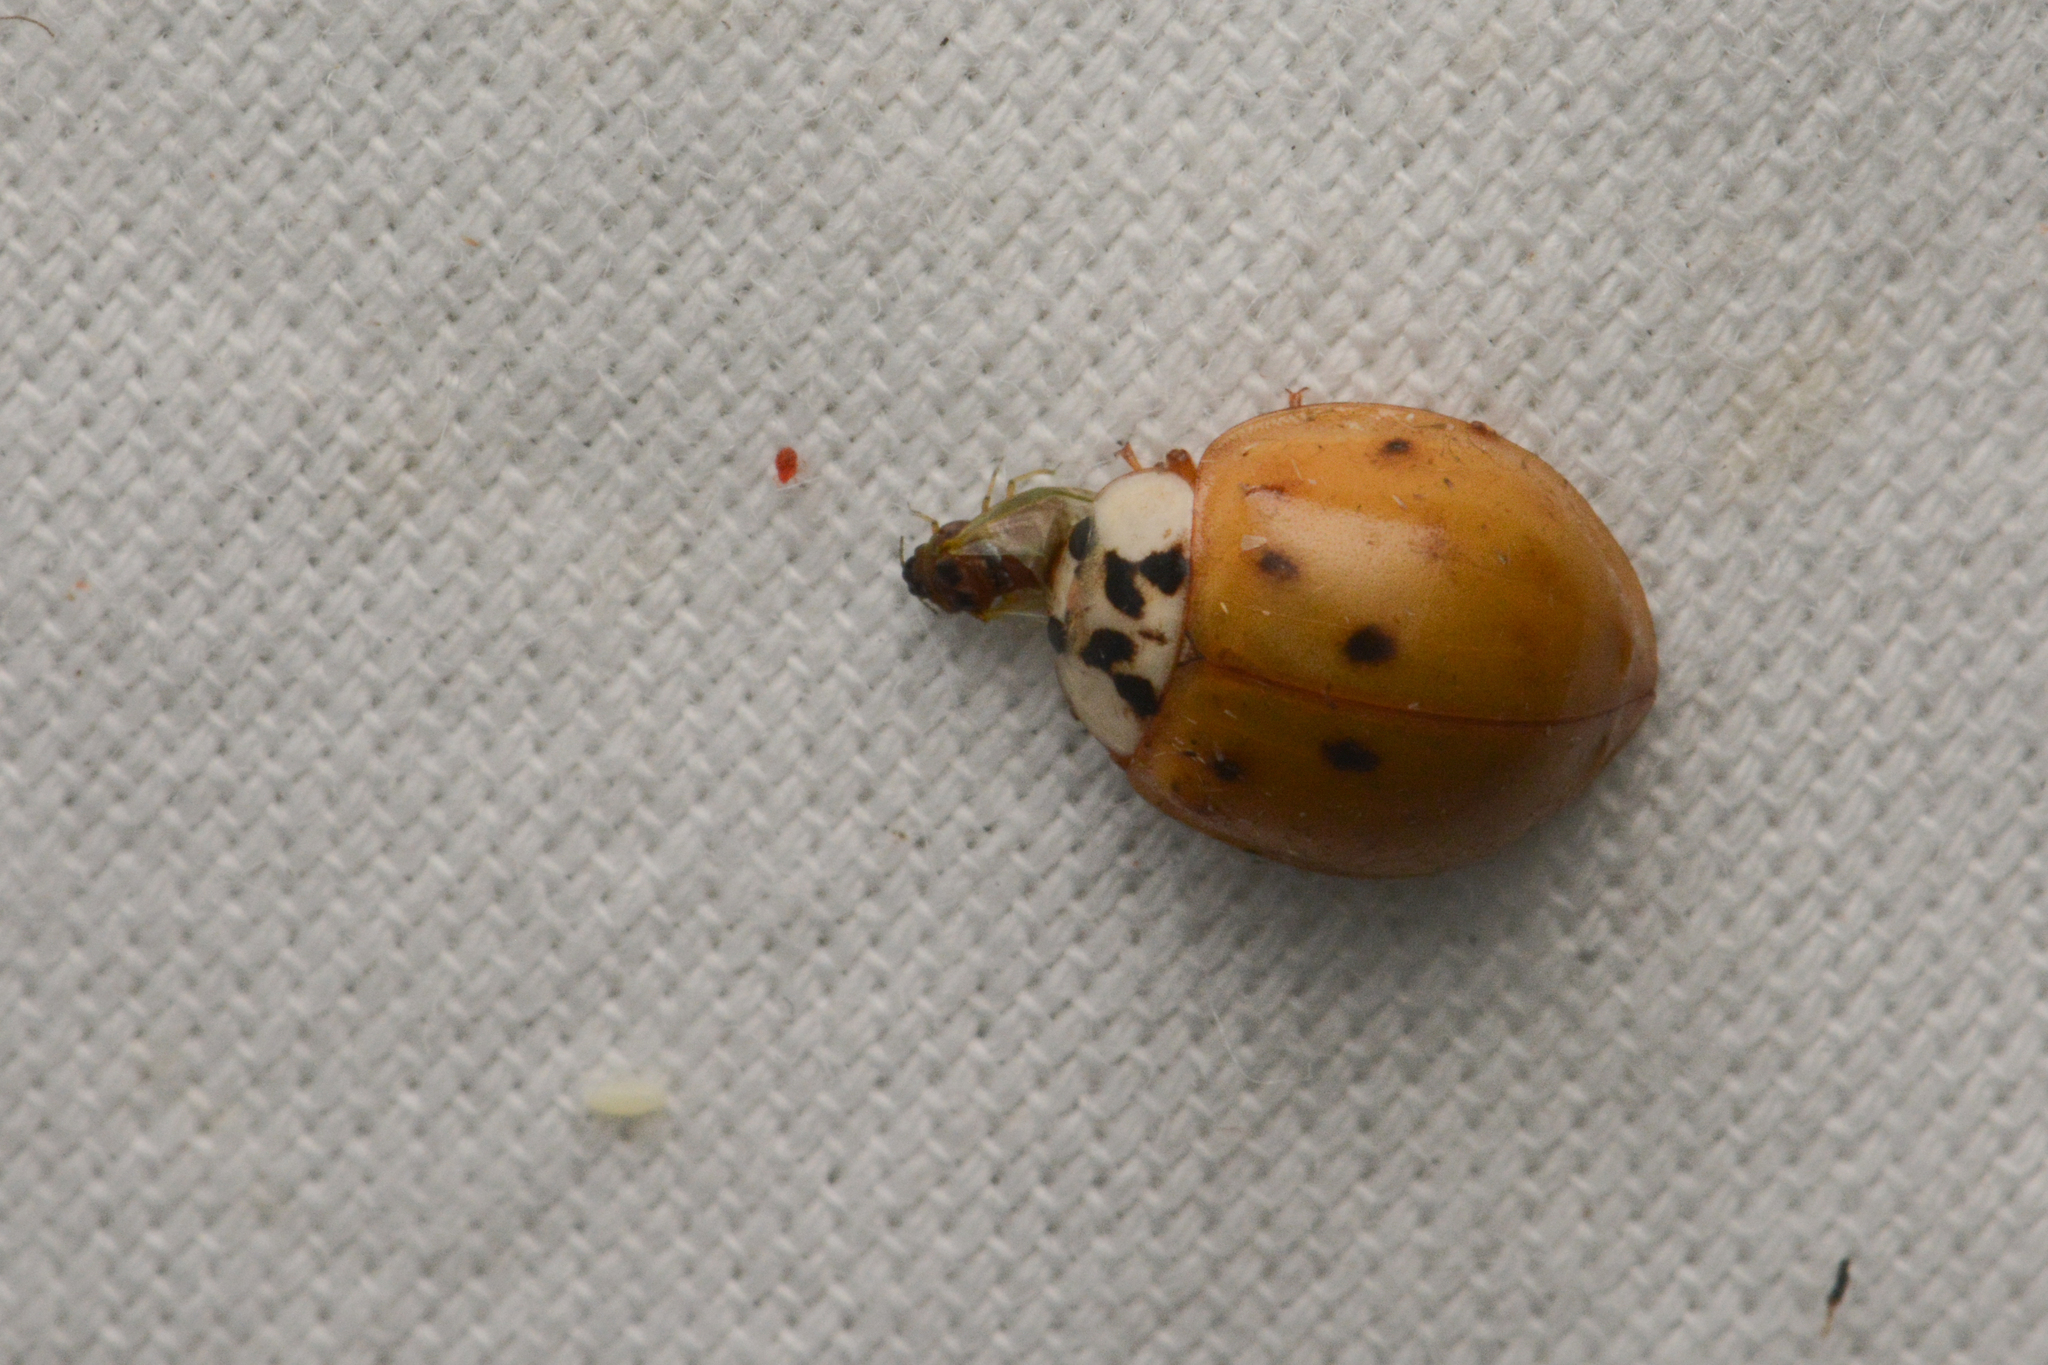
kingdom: Animalia
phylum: Arthropoda
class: Insecta
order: Coleoptera
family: Coccinellidae
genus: Harmonia
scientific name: Harmonia axyridis
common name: Harlequin ladybird
